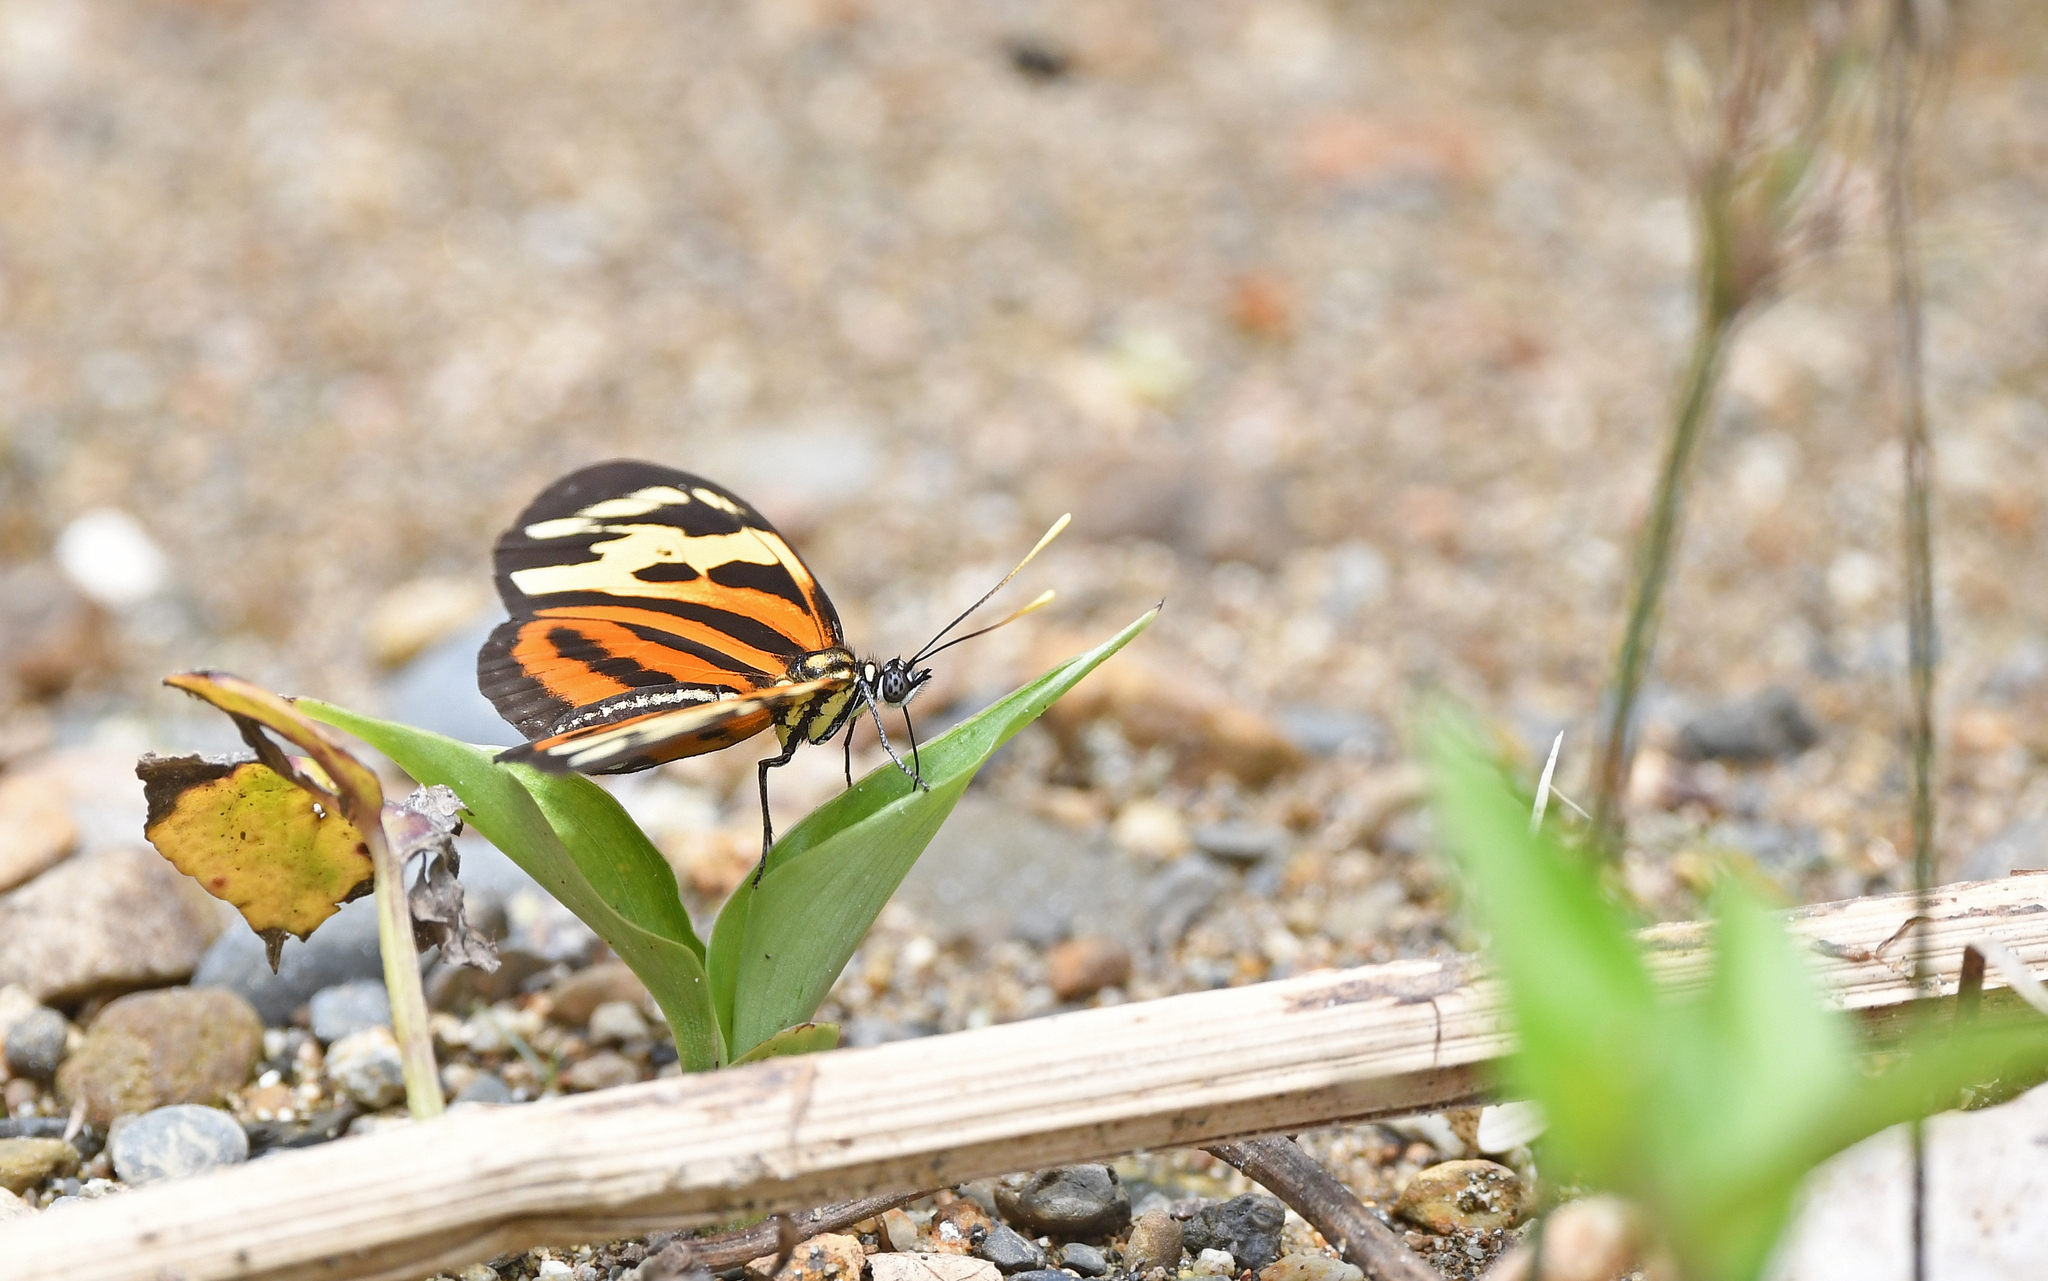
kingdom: Animalia
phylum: Arthropoda
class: Insecta
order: Lepidoptera
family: Nymphalidae
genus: Eueides
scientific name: Eueides isabella
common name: Isabella's longwing
